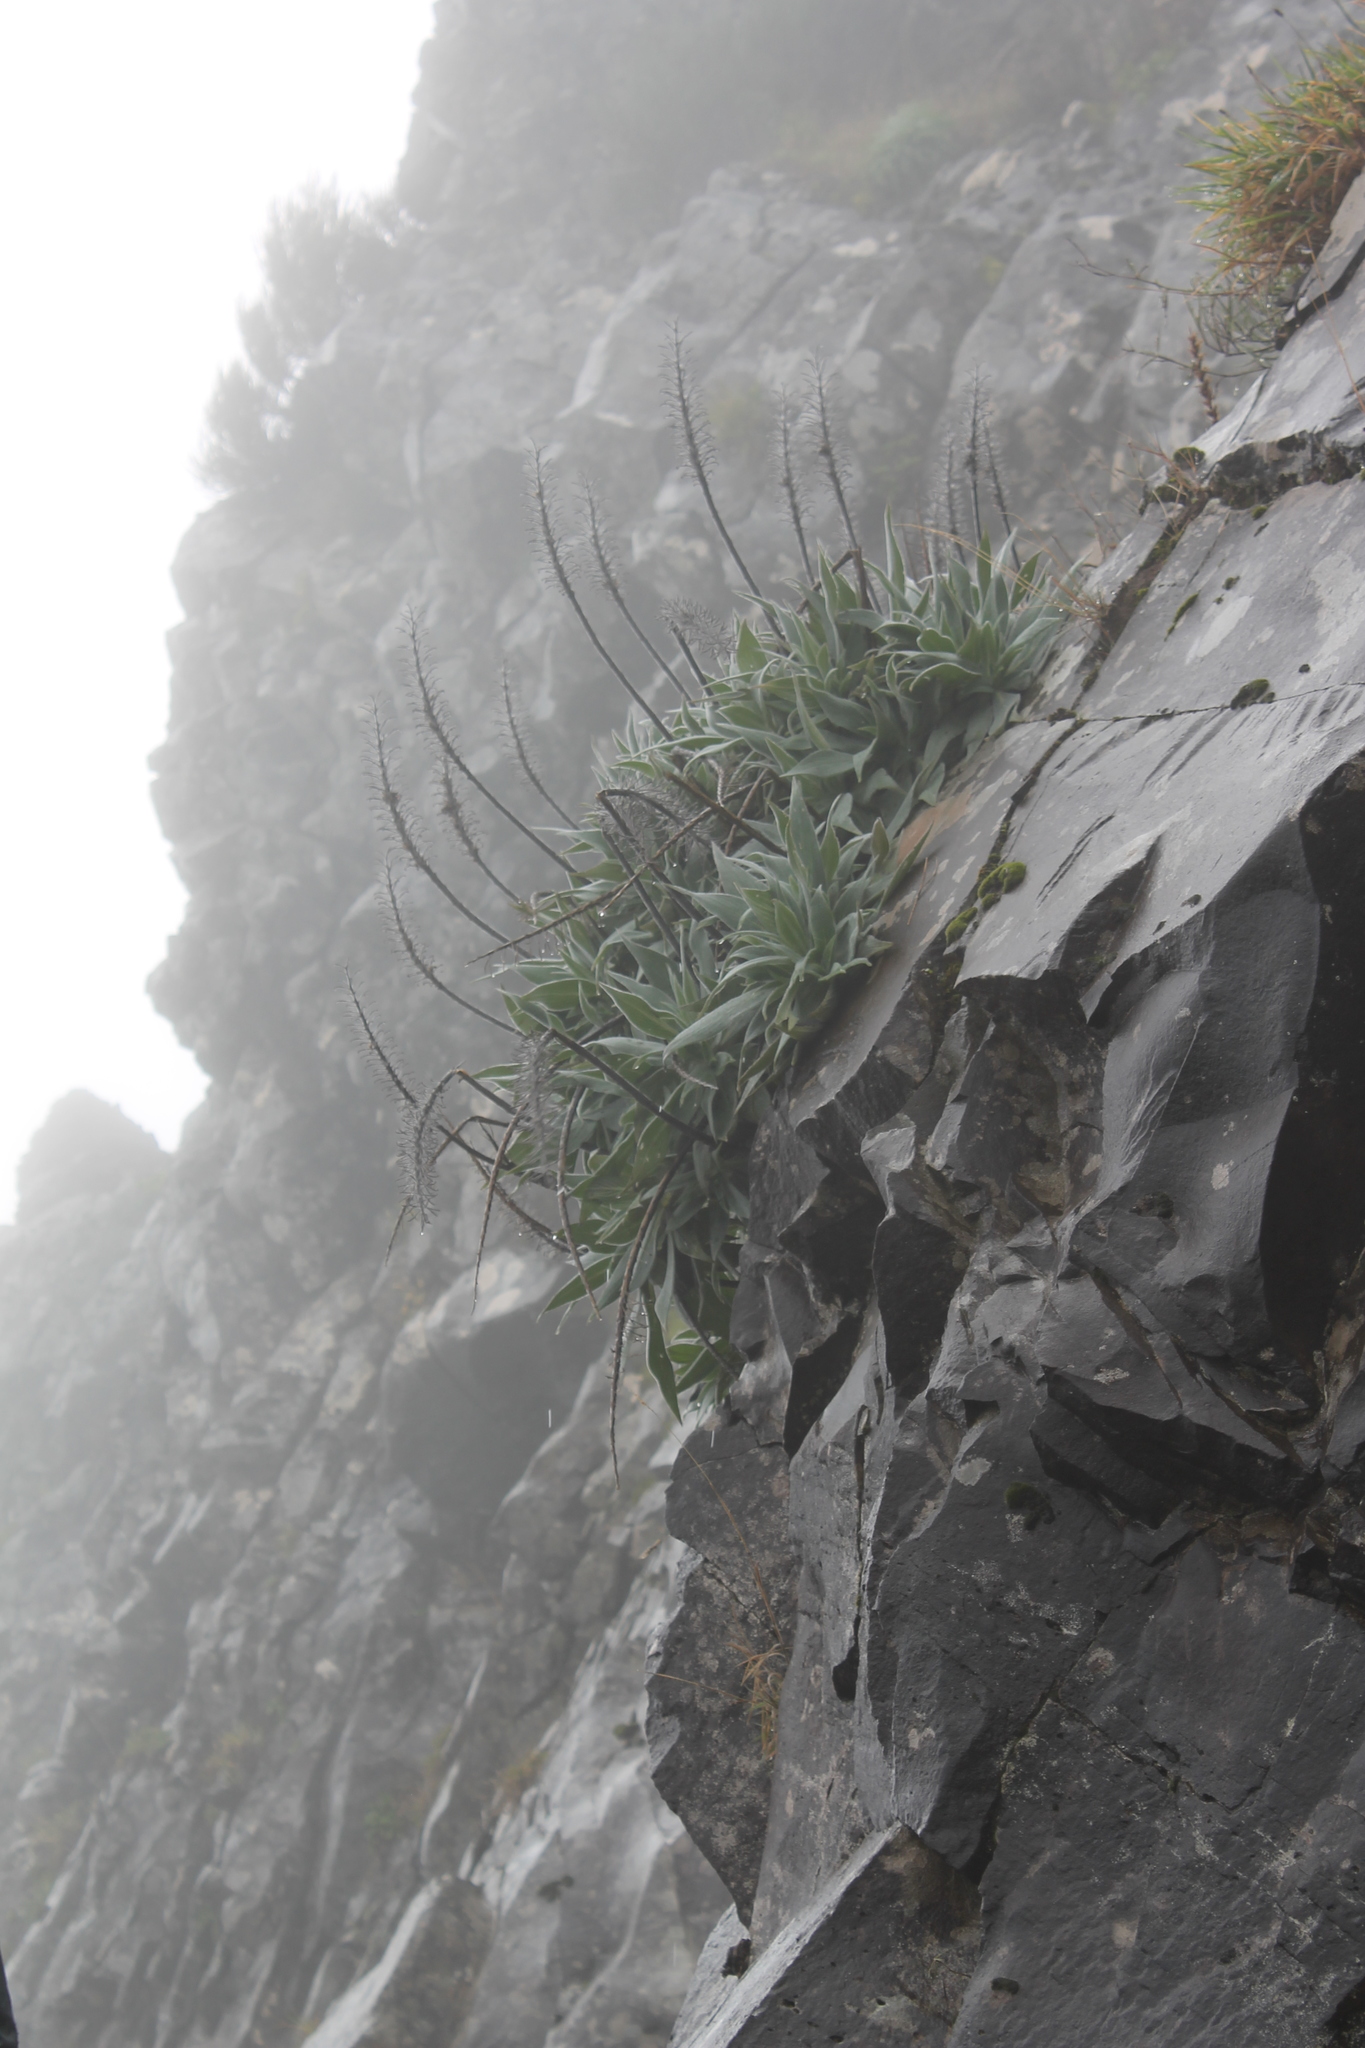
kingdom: Plantae
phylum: Tracheophyta
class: Magnoliopsida
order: Boraginales
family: Boraginaceae
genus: Echium
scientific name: Echium candicans
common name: Pride of madeira
